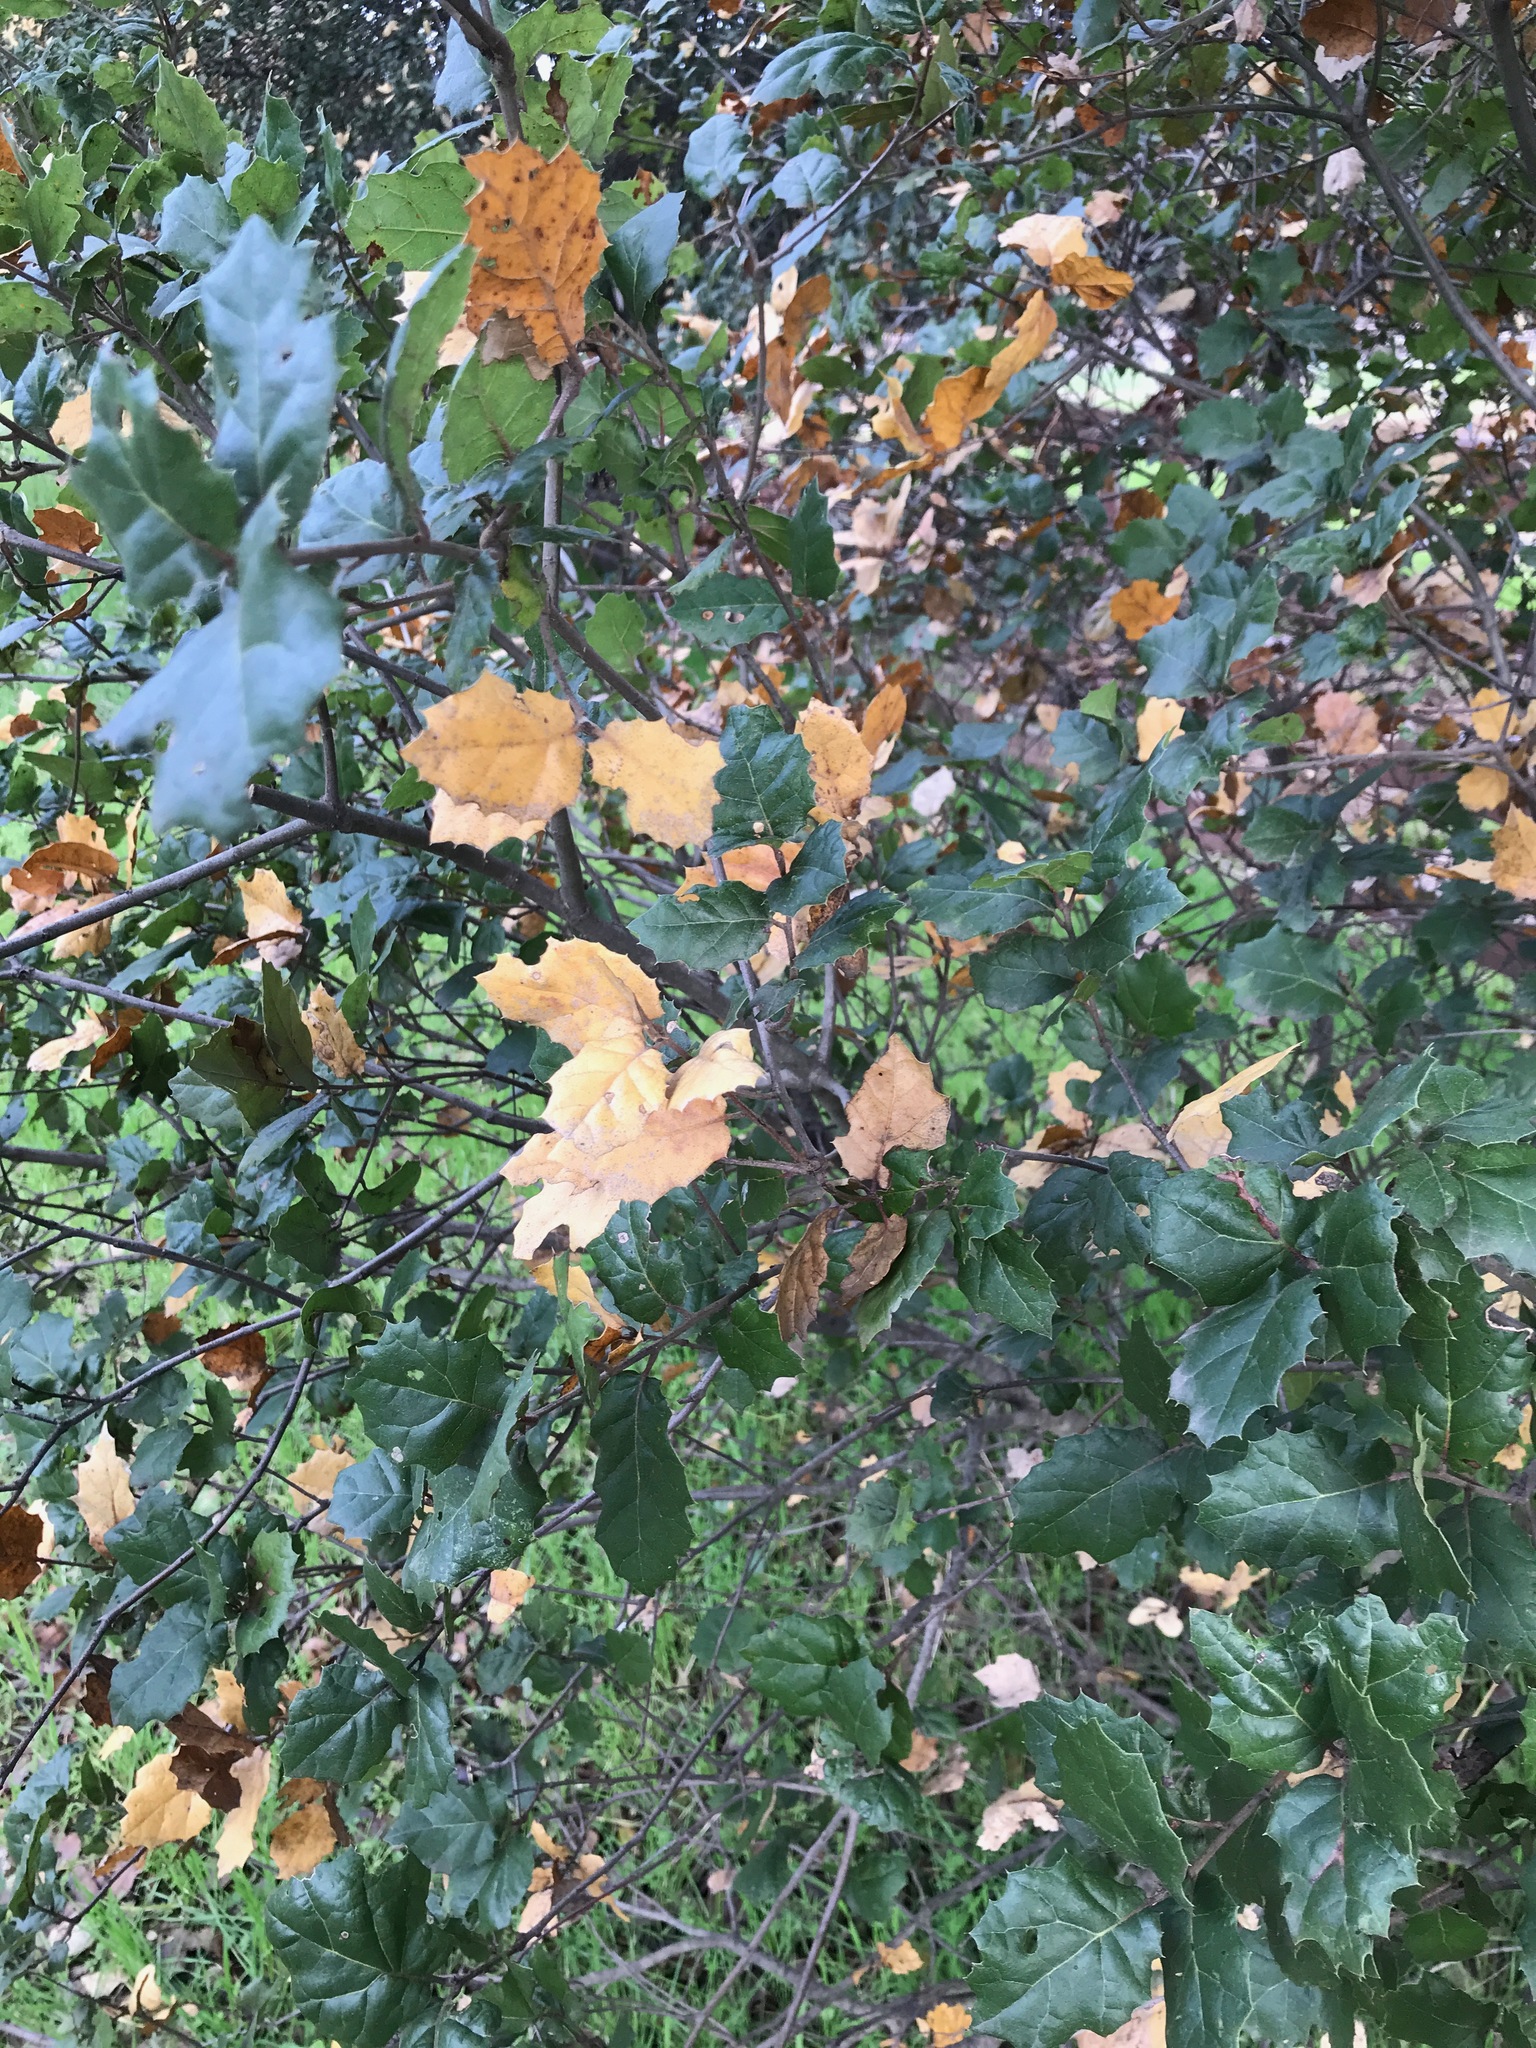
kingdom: Plantae
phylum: Tracheophyta
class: Magnoliopsida
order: Fagales
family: Fagaceae
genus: Quercus
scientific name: Quercus agrifolia
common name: California live oak
